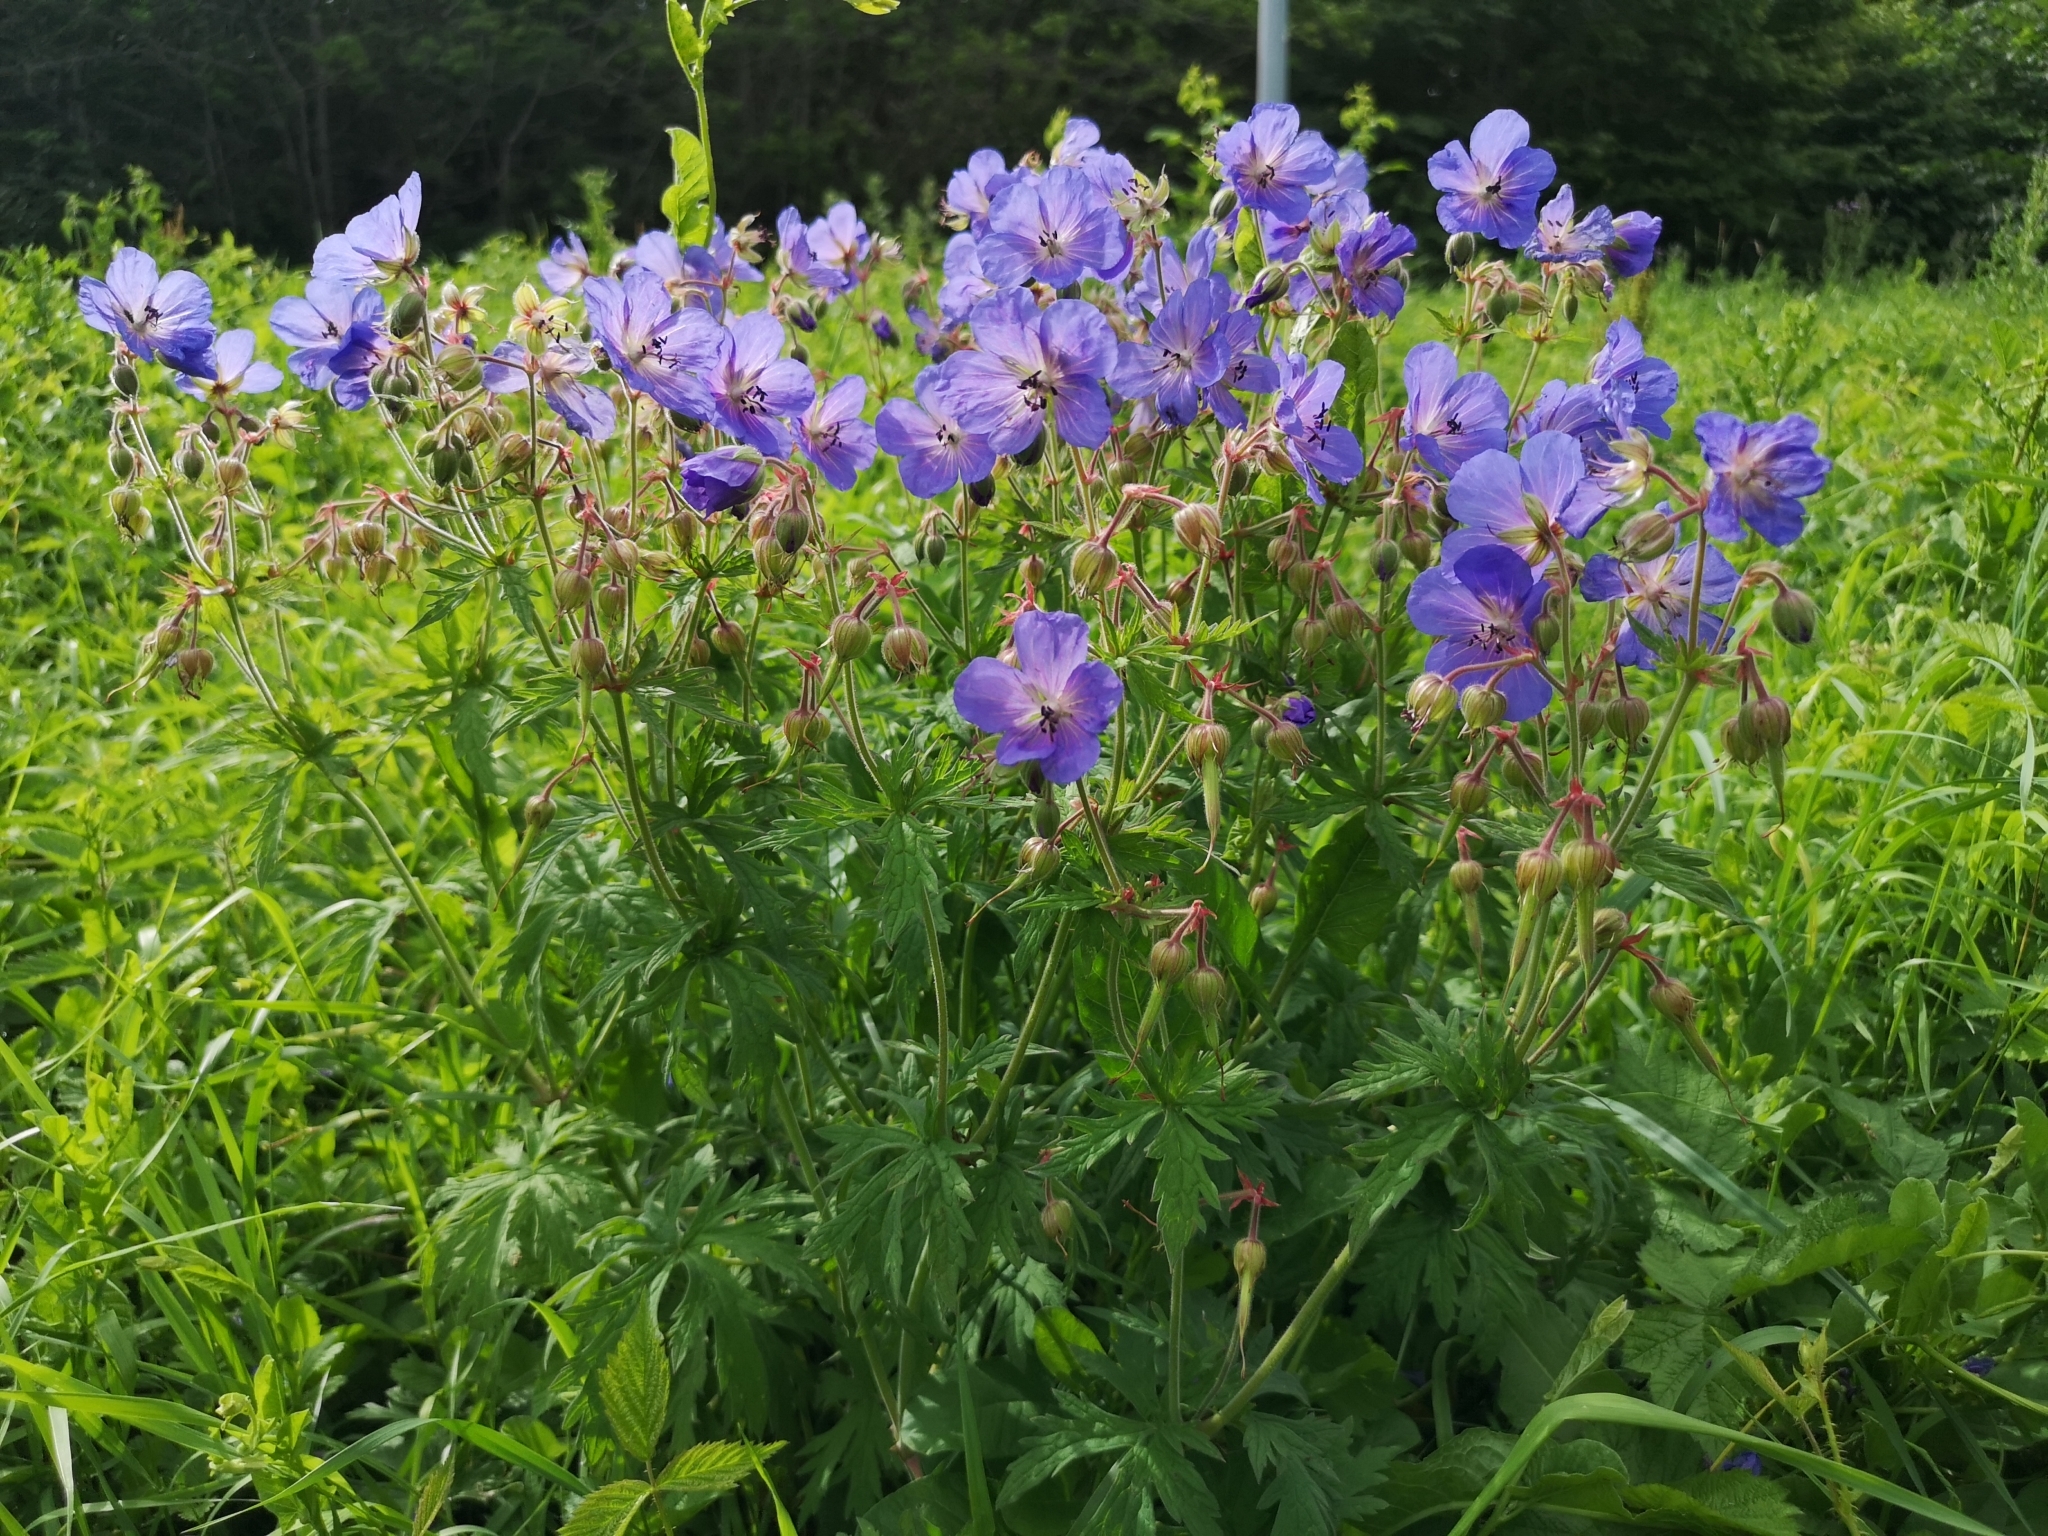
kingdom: Plantae
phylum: Tracheophyta
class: Magnoliopsida
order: Geraniales
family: Geraniaceae
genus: Geranium
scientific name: Geranium pratense
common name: Meadow crane's-bill
